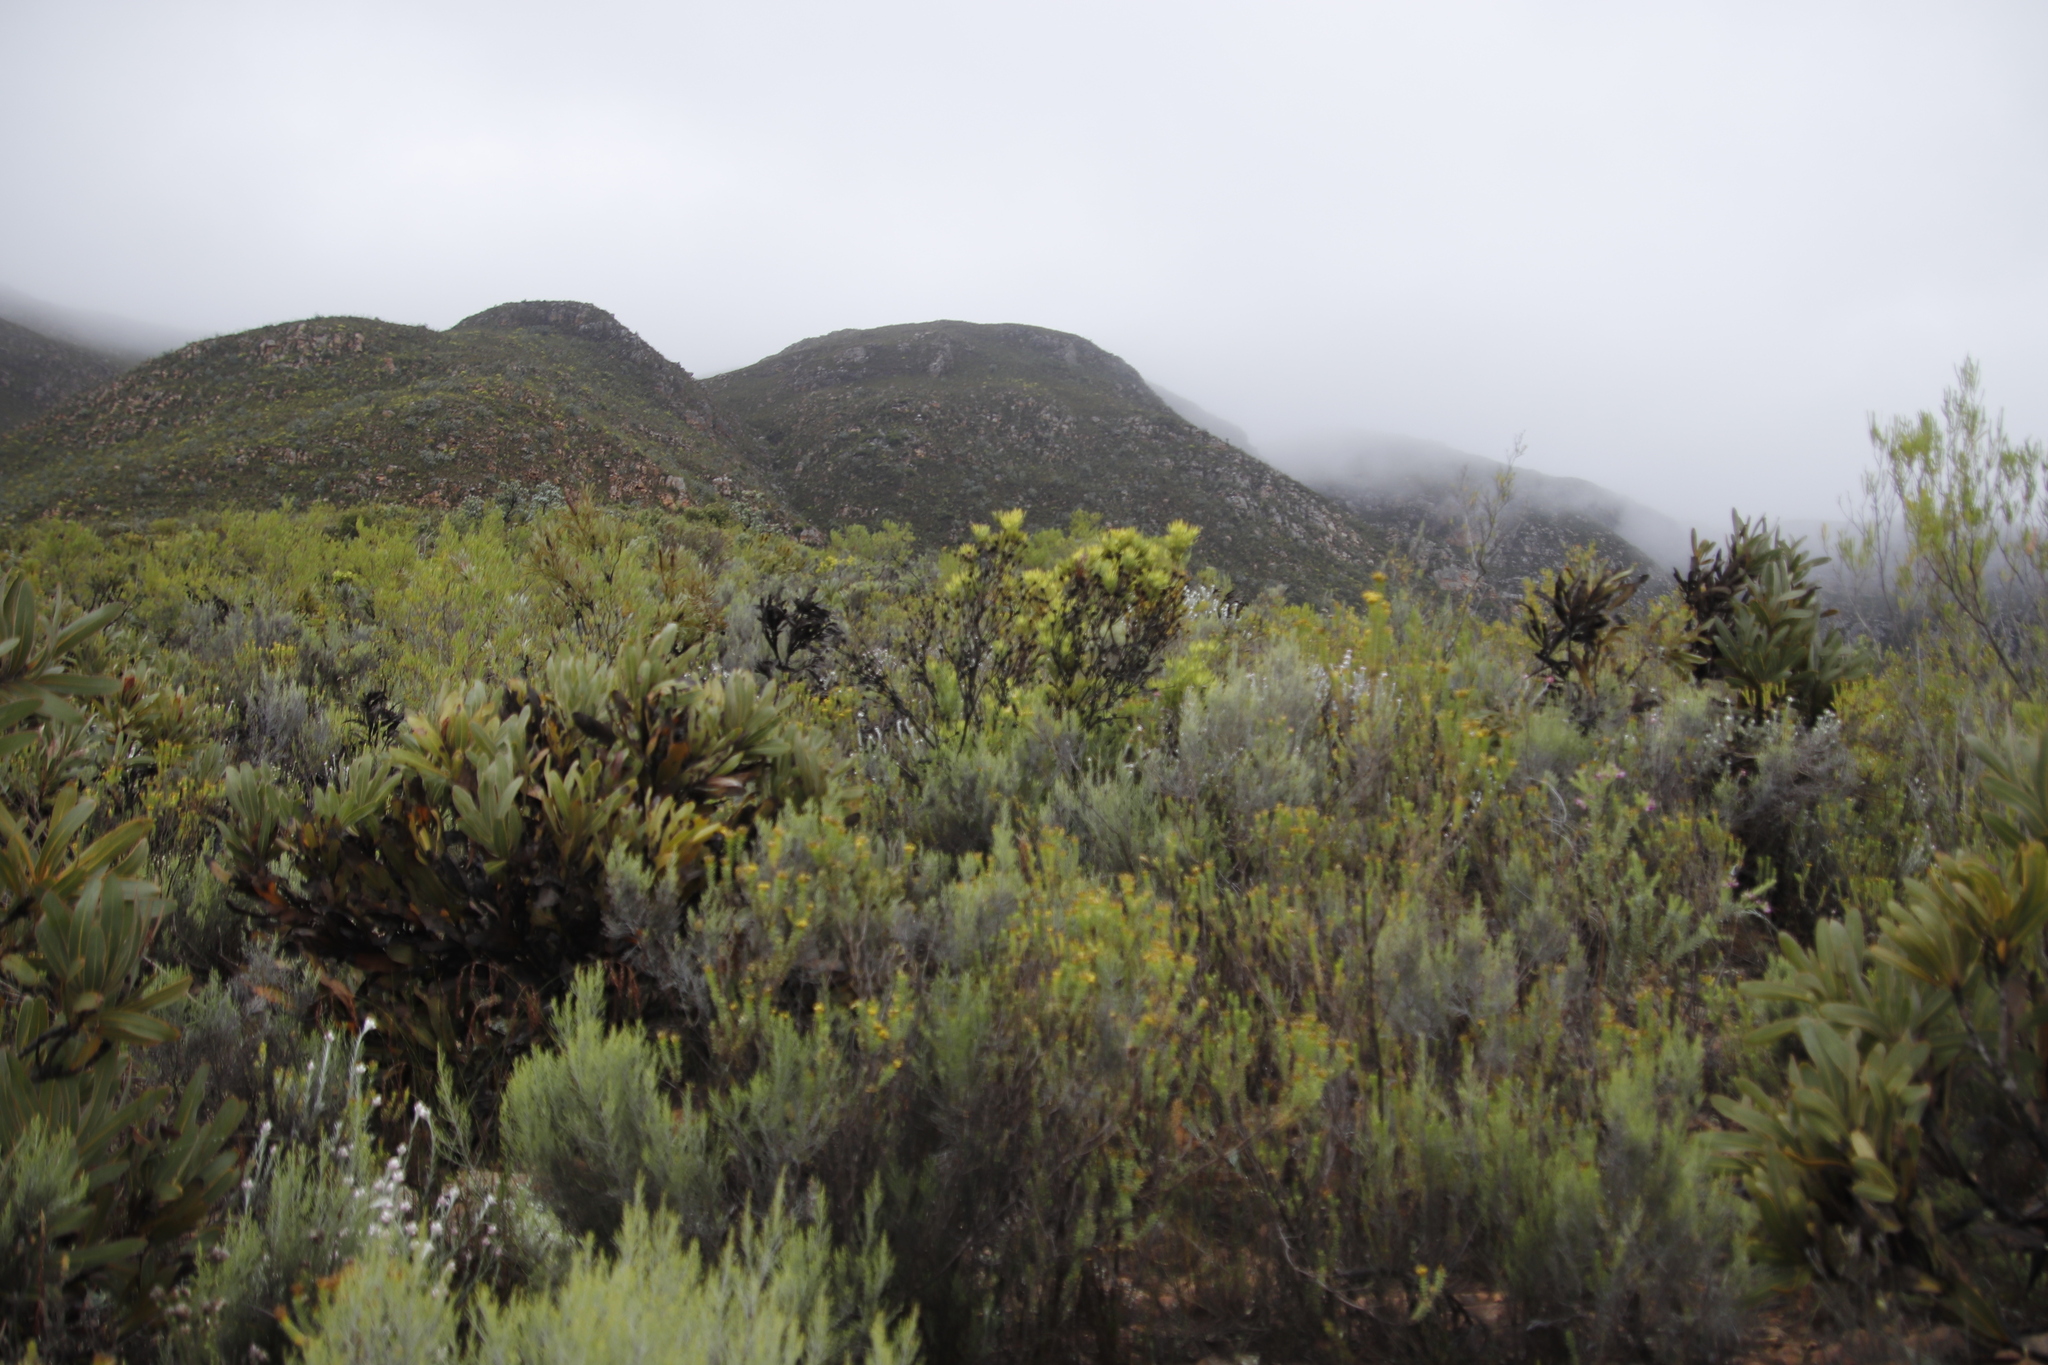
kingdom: Plantae
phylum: Tracheophyta
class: Magnoliopsida
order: Proteales
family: Proteaceae
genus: Protea
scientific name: Protea lorifolia
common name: Strap-leaved protea
